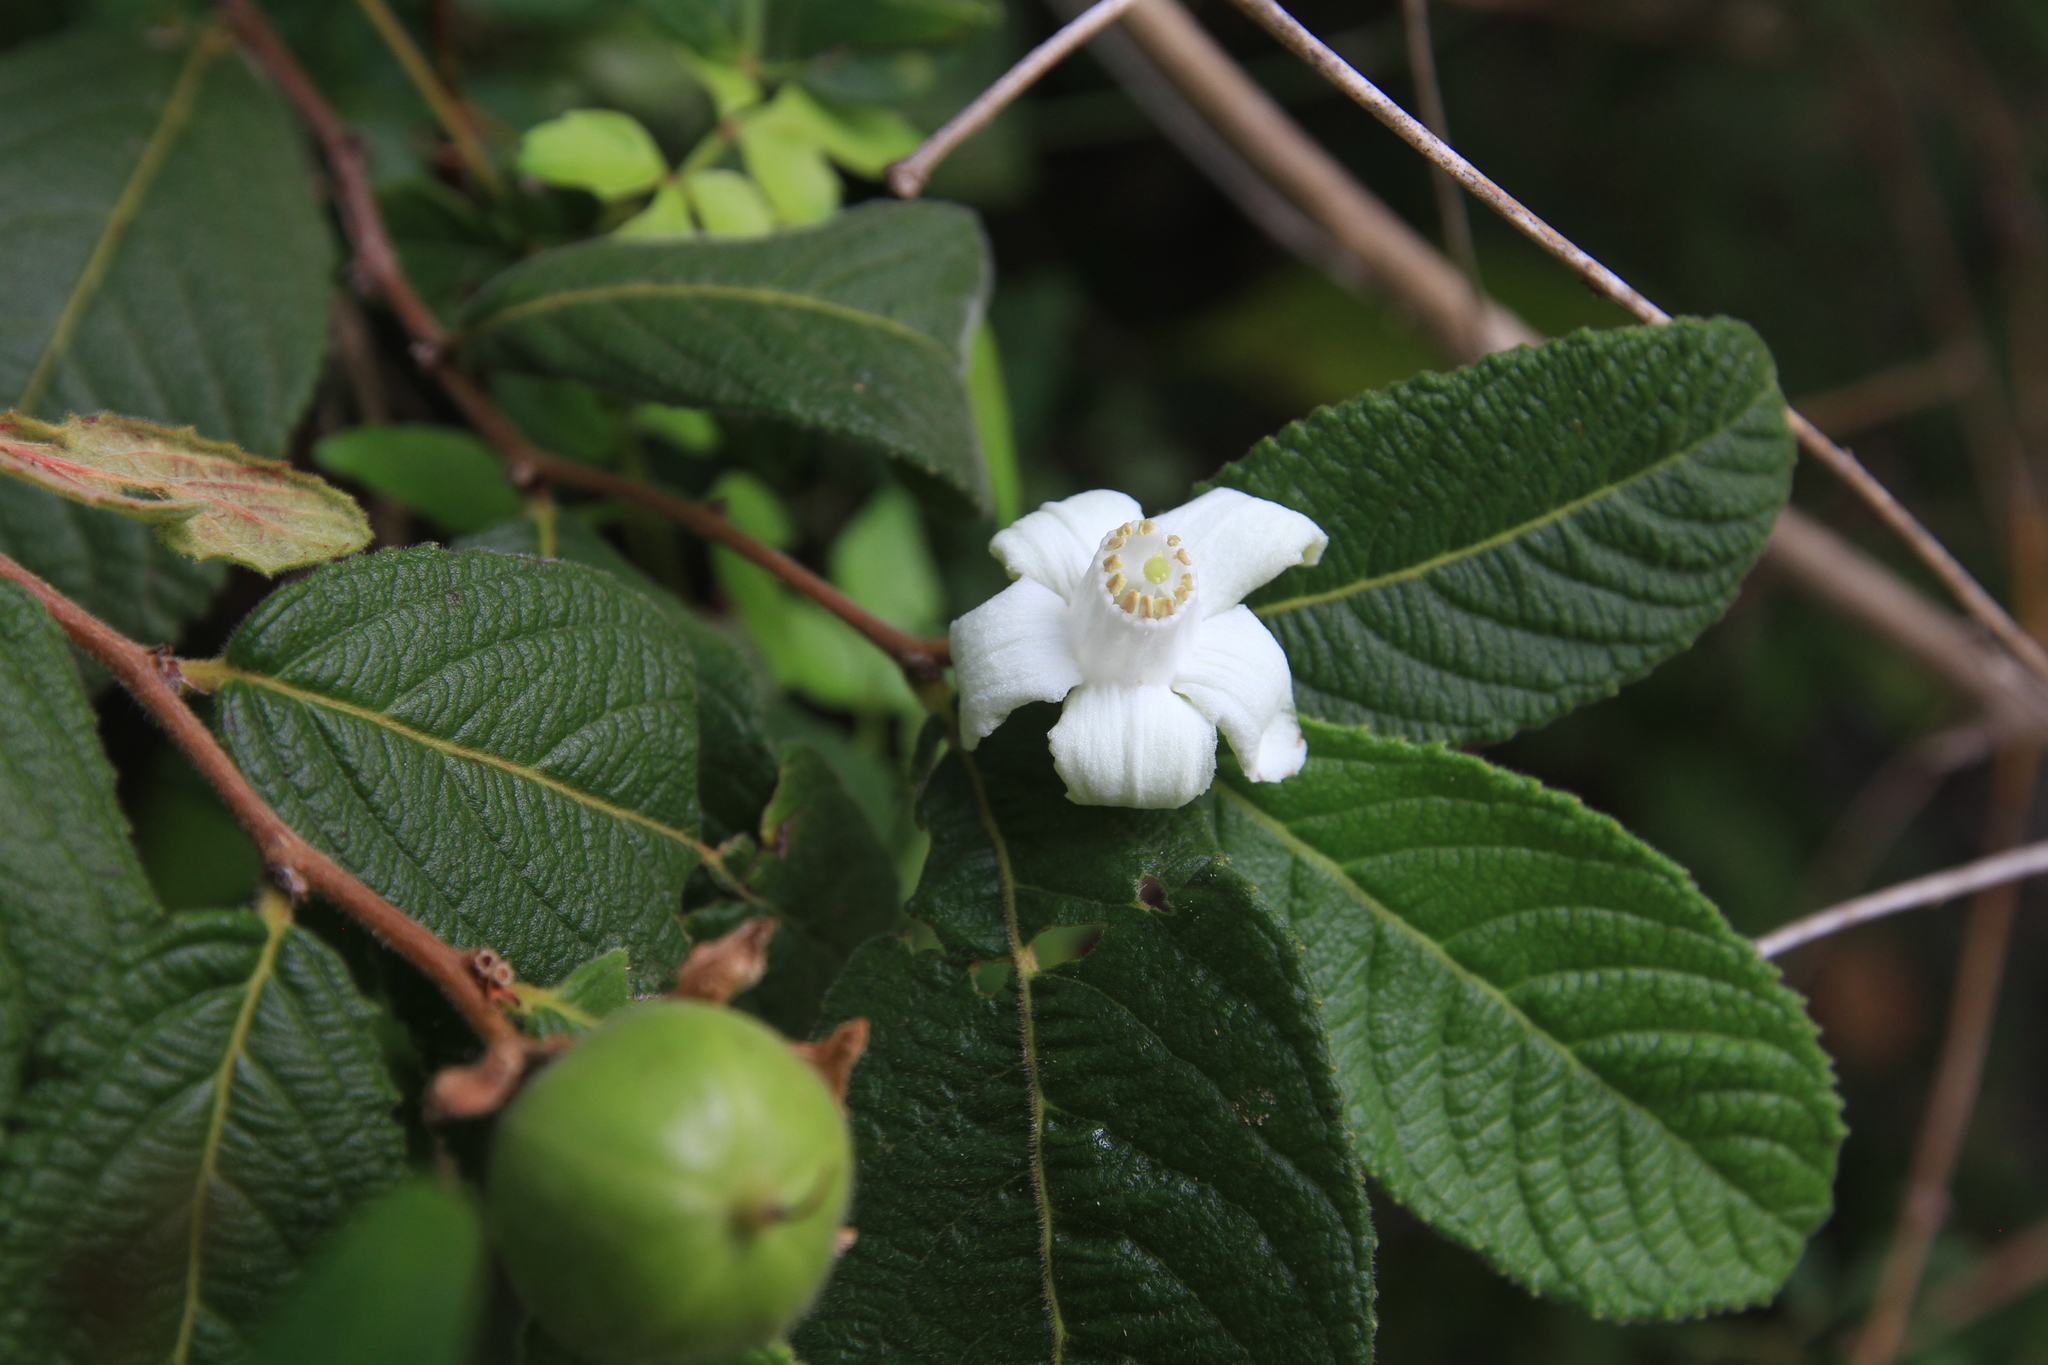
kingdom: Plantae
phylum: Tracheophyta
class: Magnoliopsida
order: Malpighiales
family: Salicaceae
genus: Casearia
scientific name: Casearia dodecandra
